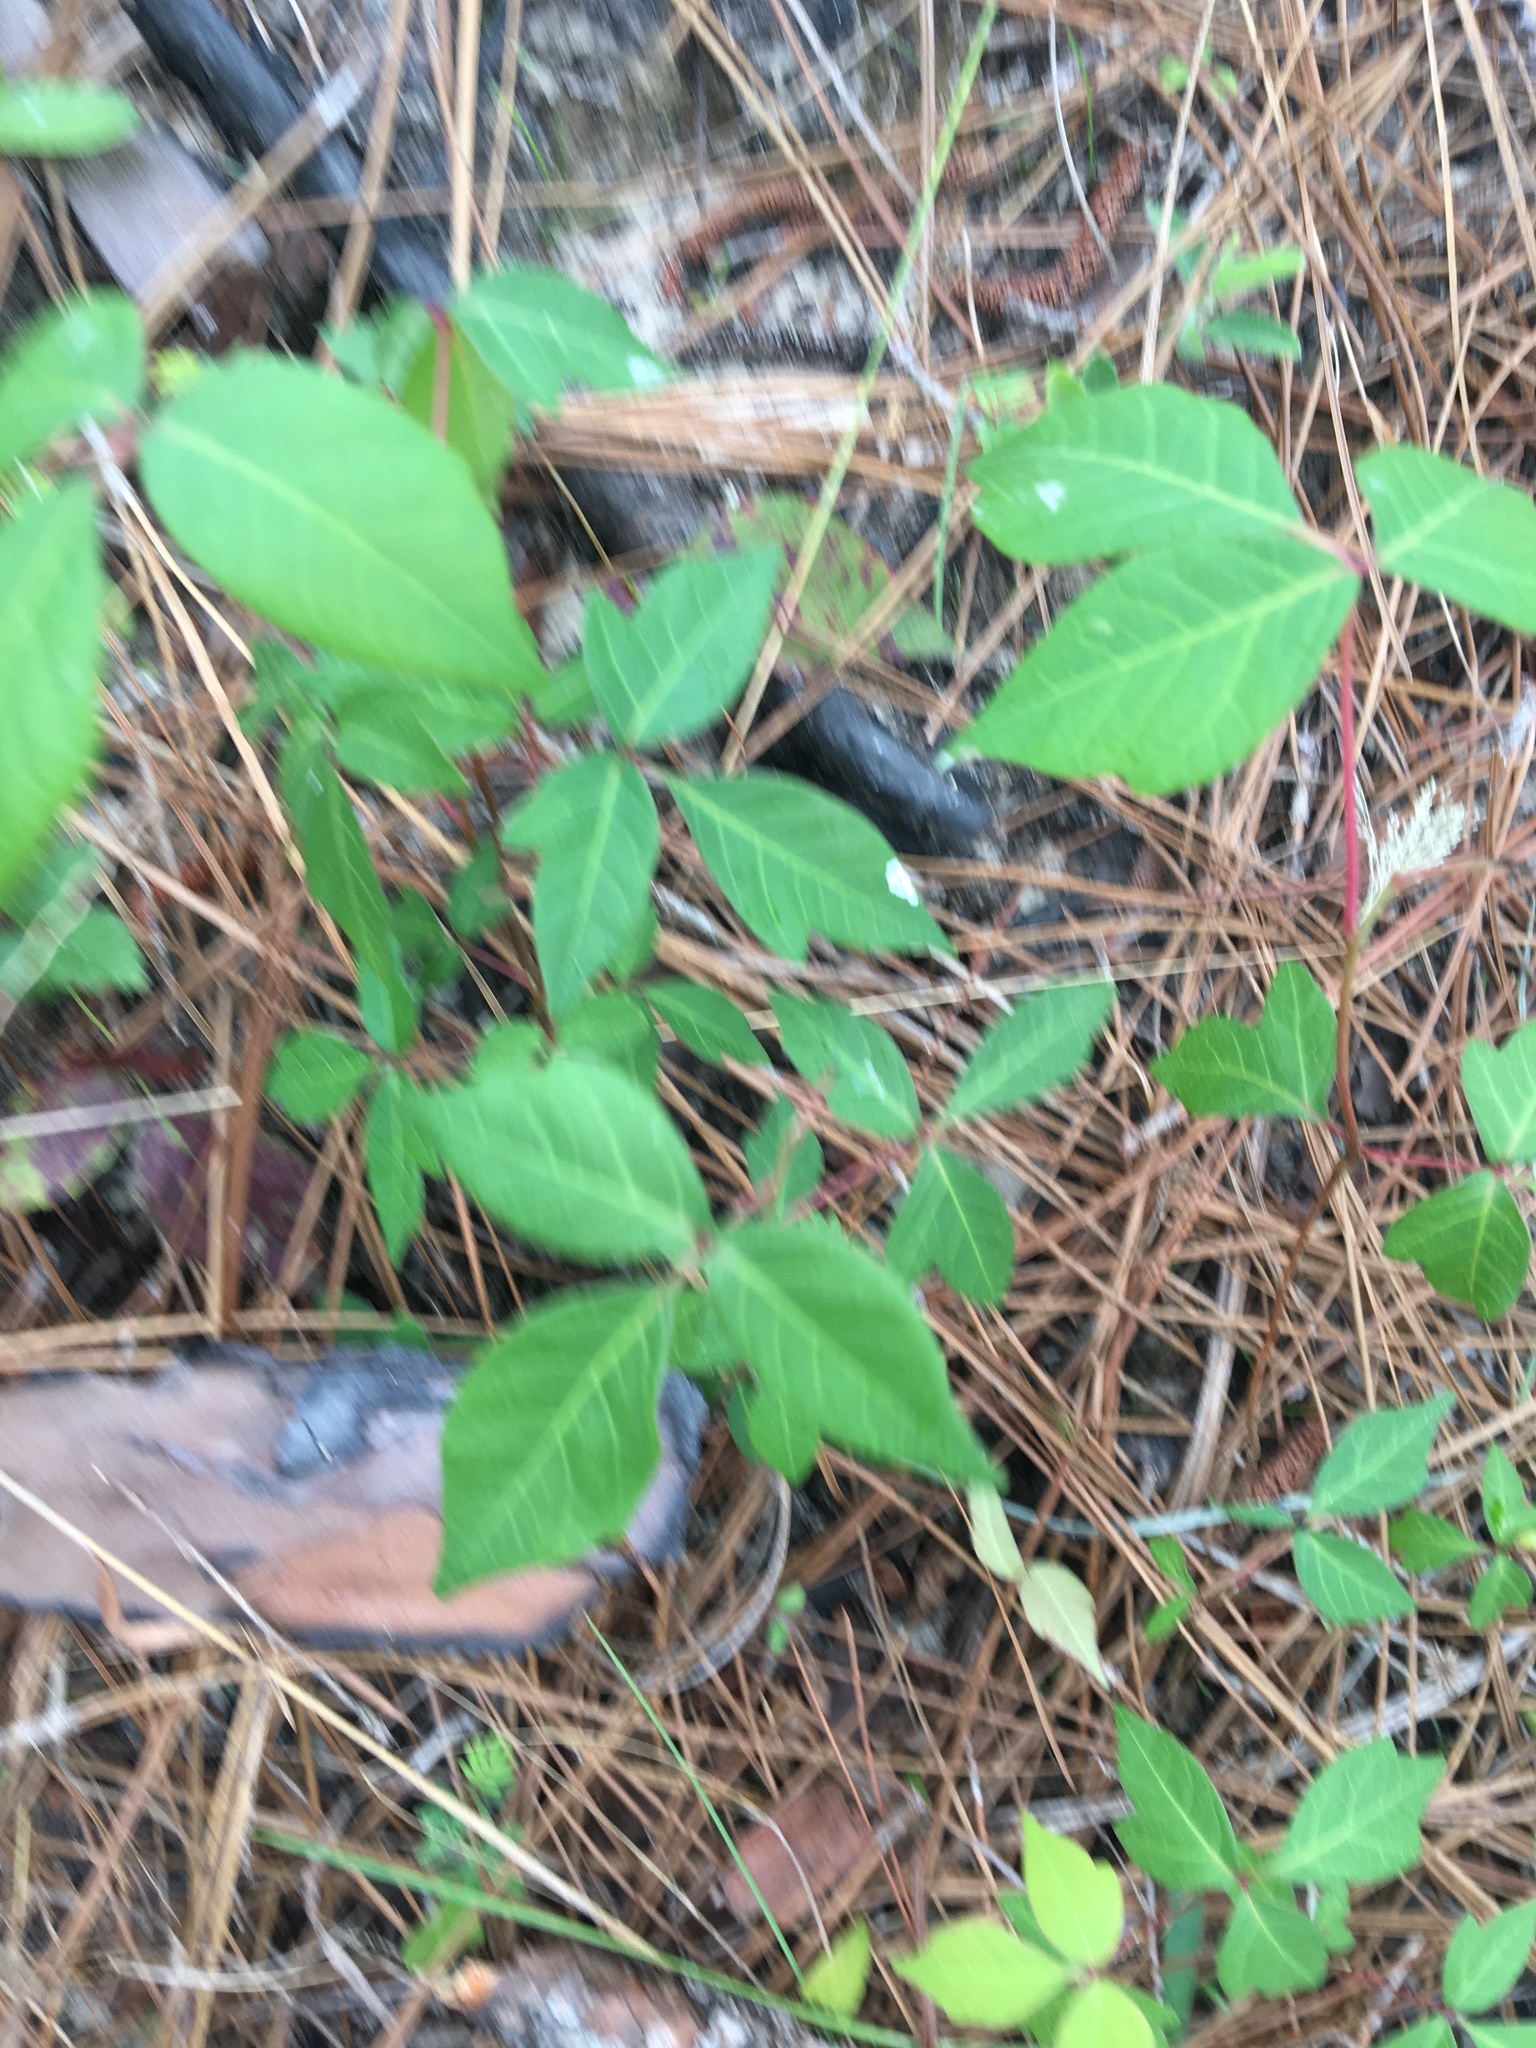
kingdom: Plantae
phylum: Tracheophyta
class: Magnoliopsida
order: Sapindales
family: Anacardiaceae
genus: Toxicodendron
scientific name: Toxicodendron radicans
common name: Poison ivy
